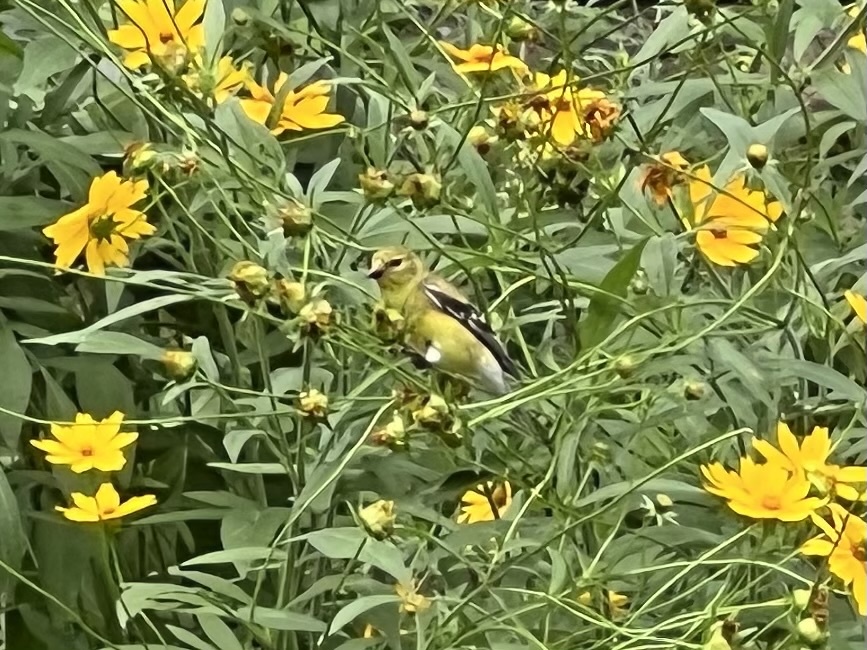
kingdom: Animalia
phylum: Chordata
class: Aves
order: Passeriformes
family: Fringillidae
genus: Spinus
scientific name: Spinus tristis
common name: American goldfinch
